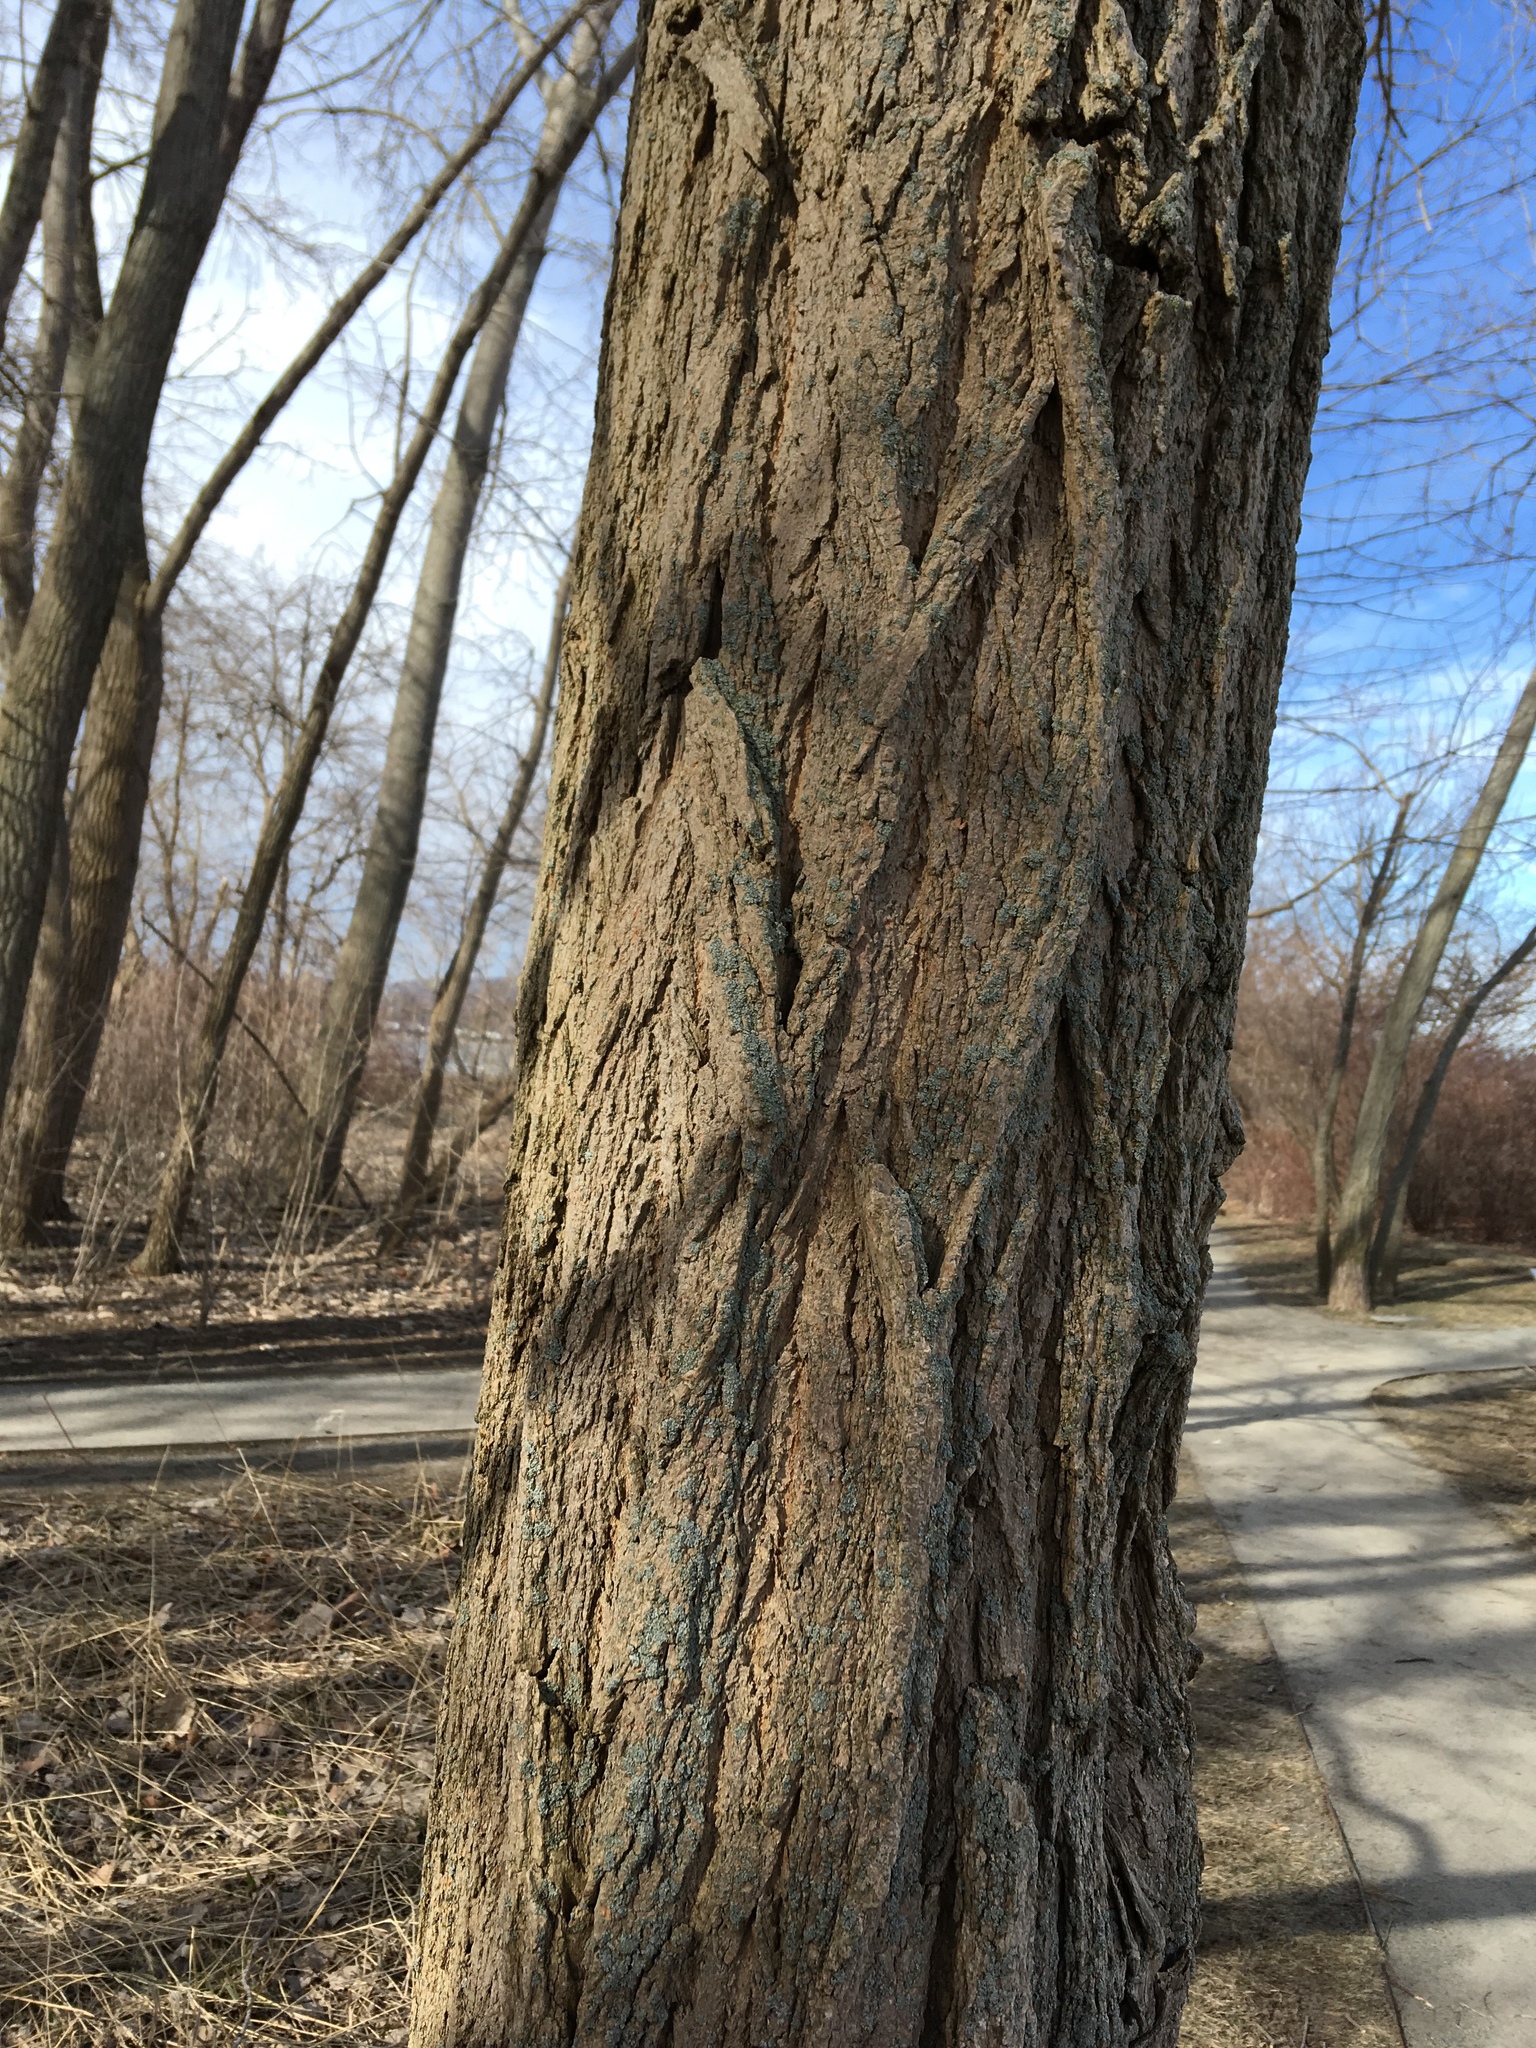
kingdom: Plantae
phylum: Tracheophyta
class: Magnoliopsida
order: Fabales
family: Fabaceae
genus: Robinia
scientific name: Robinia pseudoacacia
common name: Black locust
